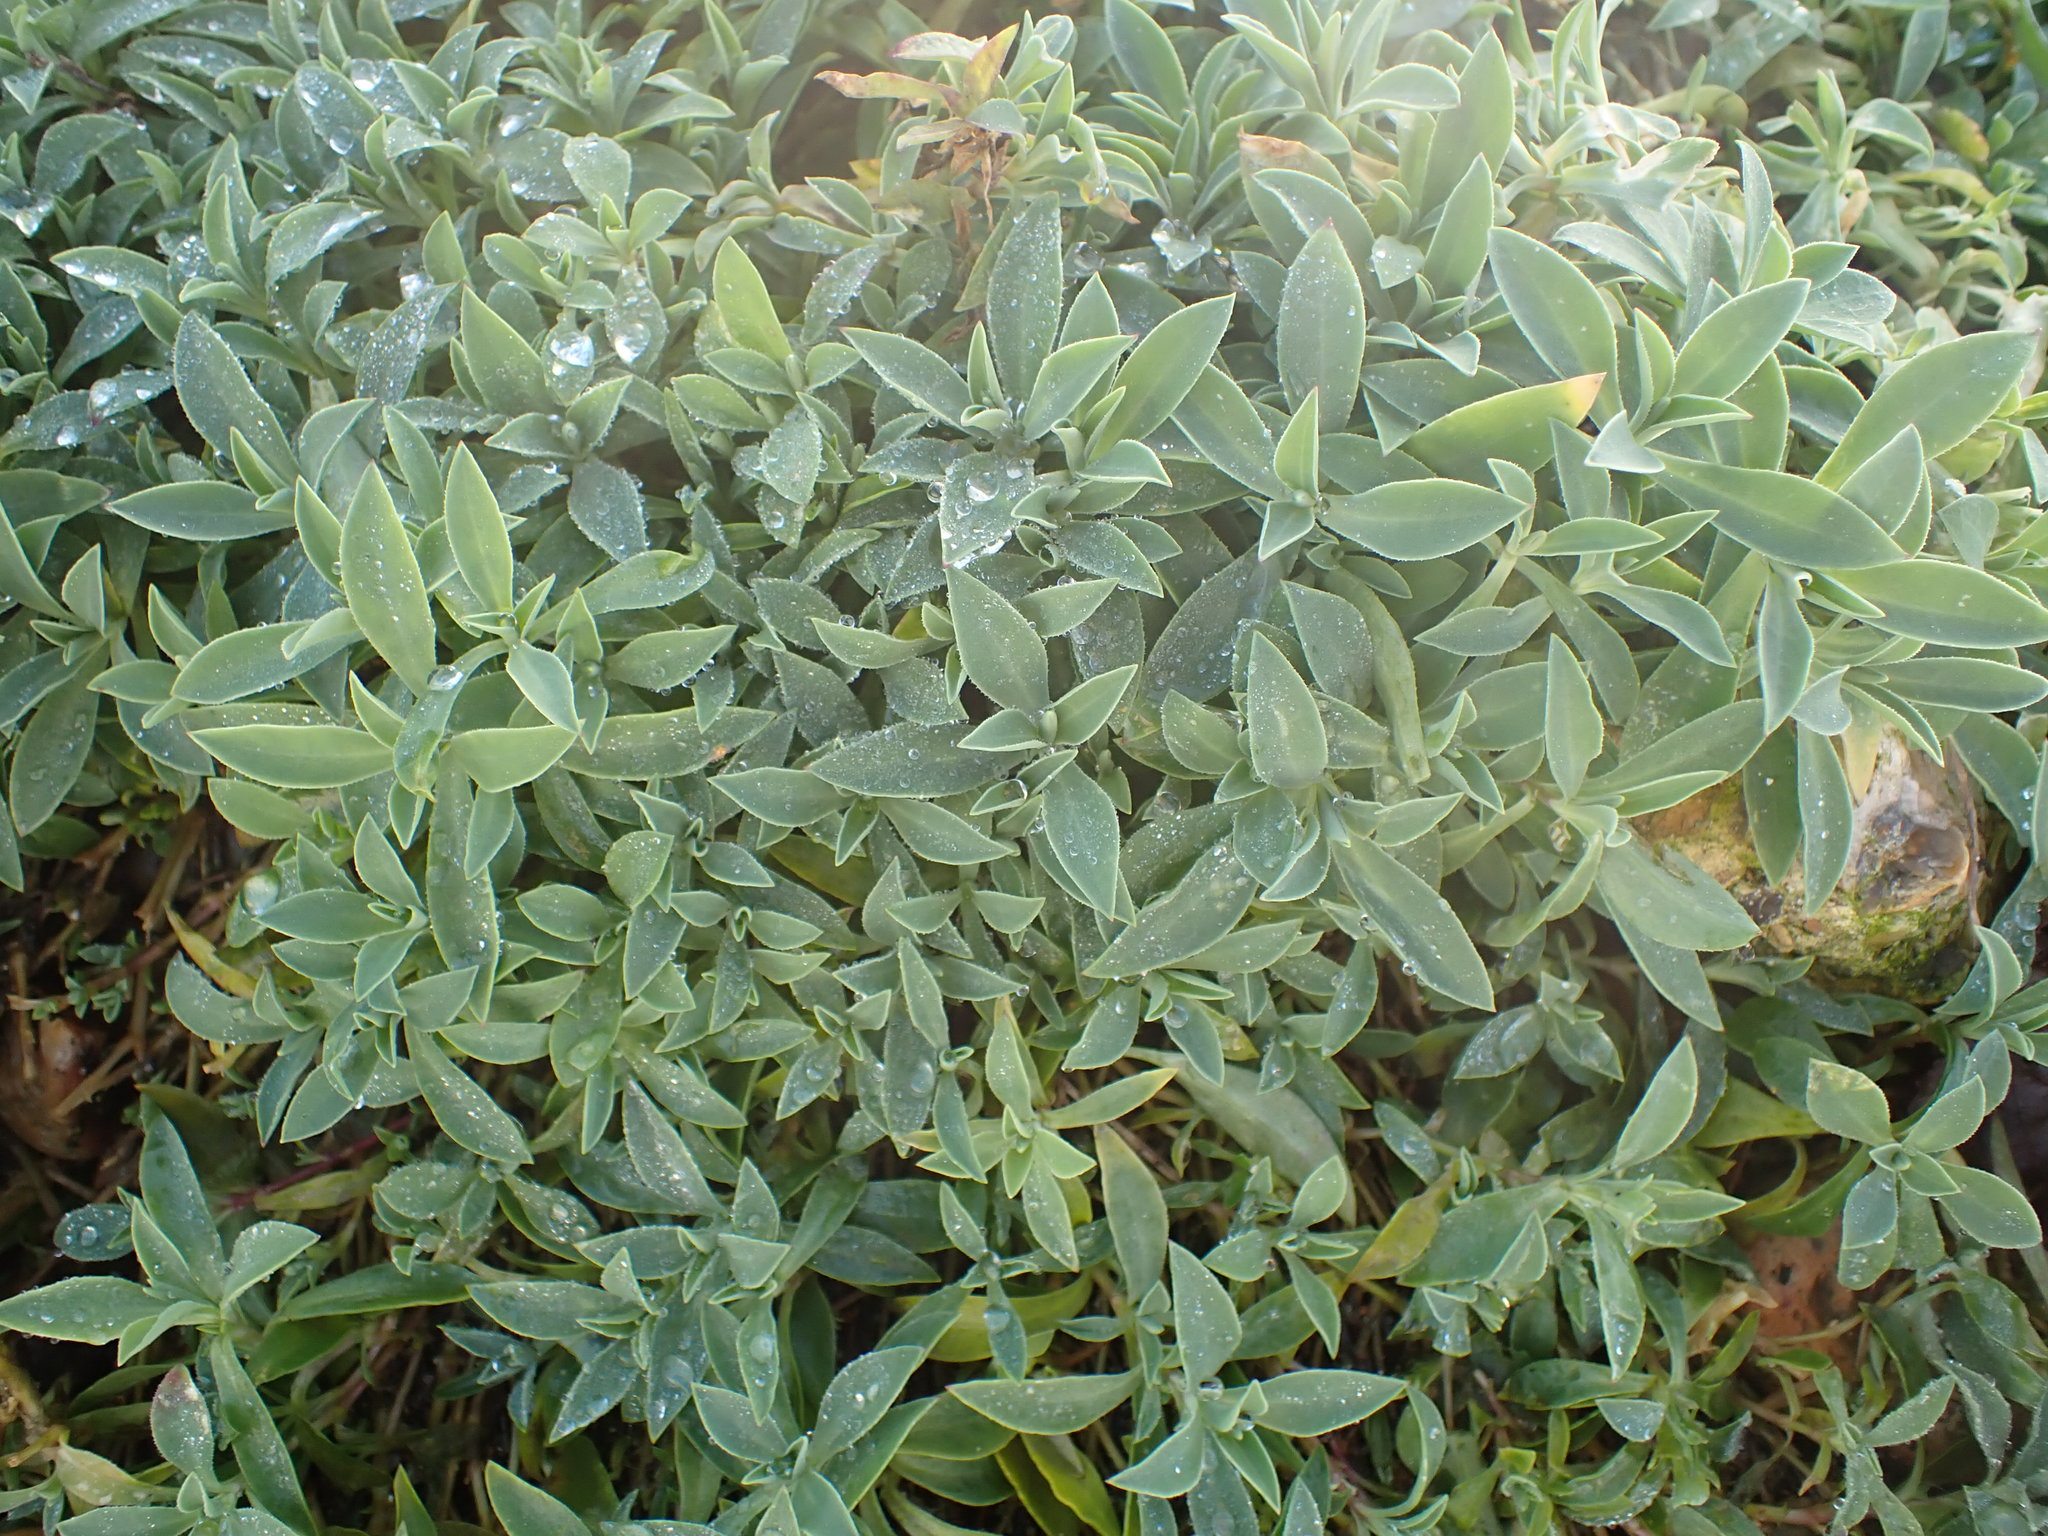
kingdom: Plantae
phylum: Tracheophyta
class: Magnoliopsida
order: Caryophyllales
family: Caryophyllaceae
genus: Silene
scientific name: Silene uniflora
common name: Sea campion
